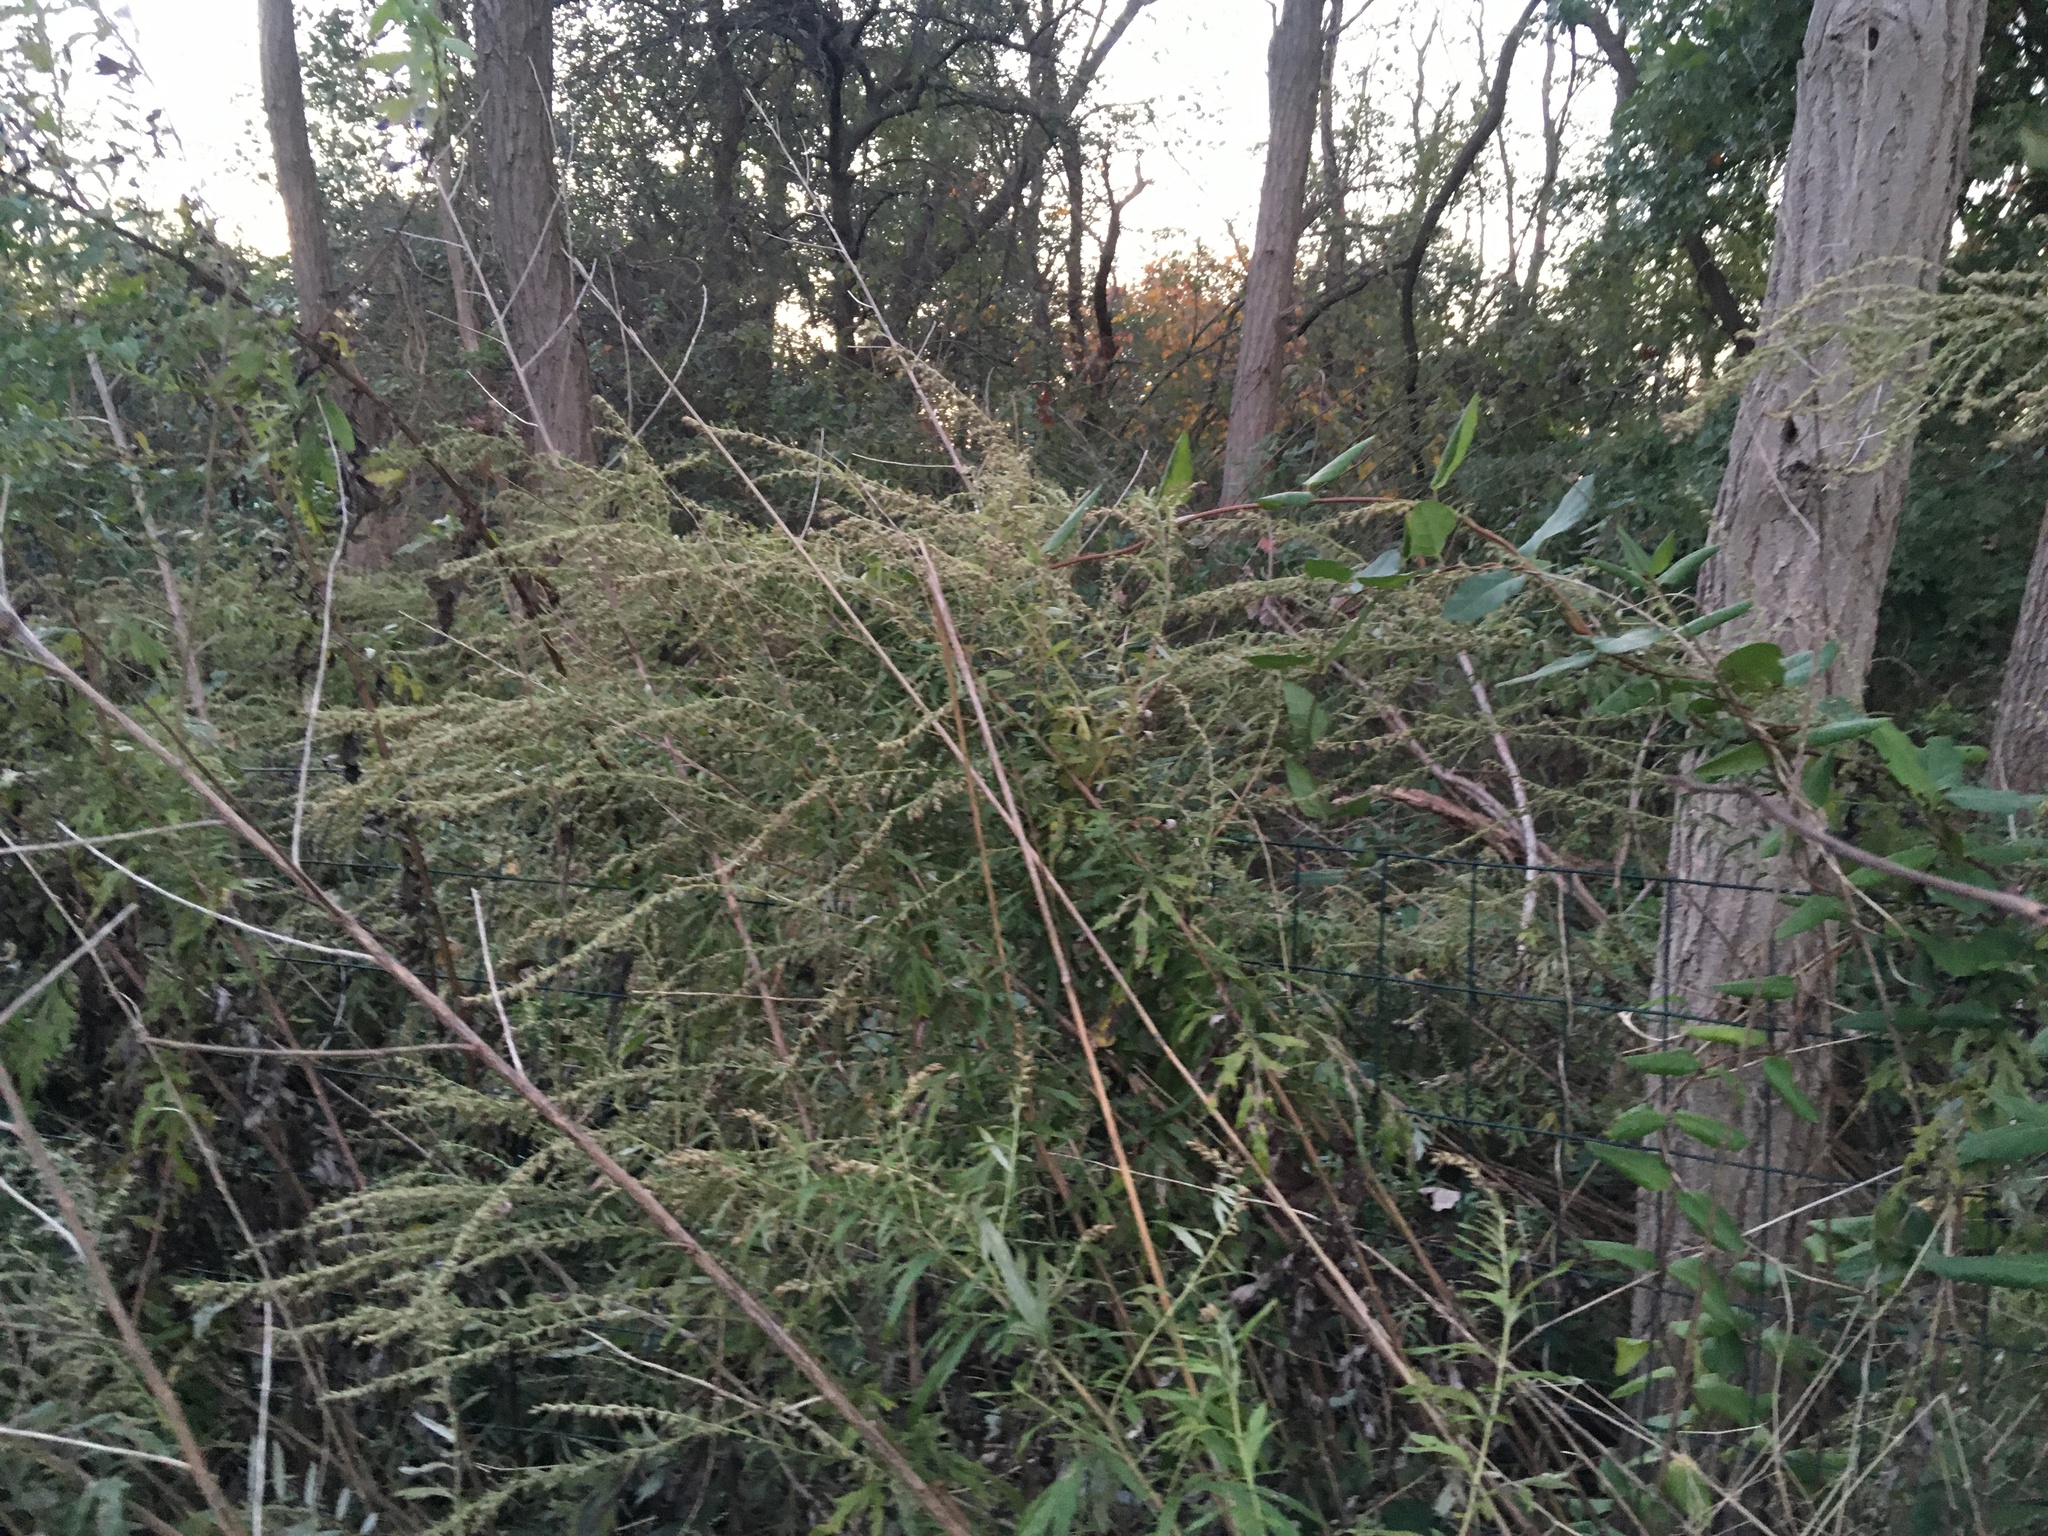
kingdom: Plantae
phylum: Tracheophyta
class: Magnoliopsida
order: Asterales
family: Asteraceae
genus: Artemisia
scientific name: Artemisia vulgaris
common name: Mugwort
